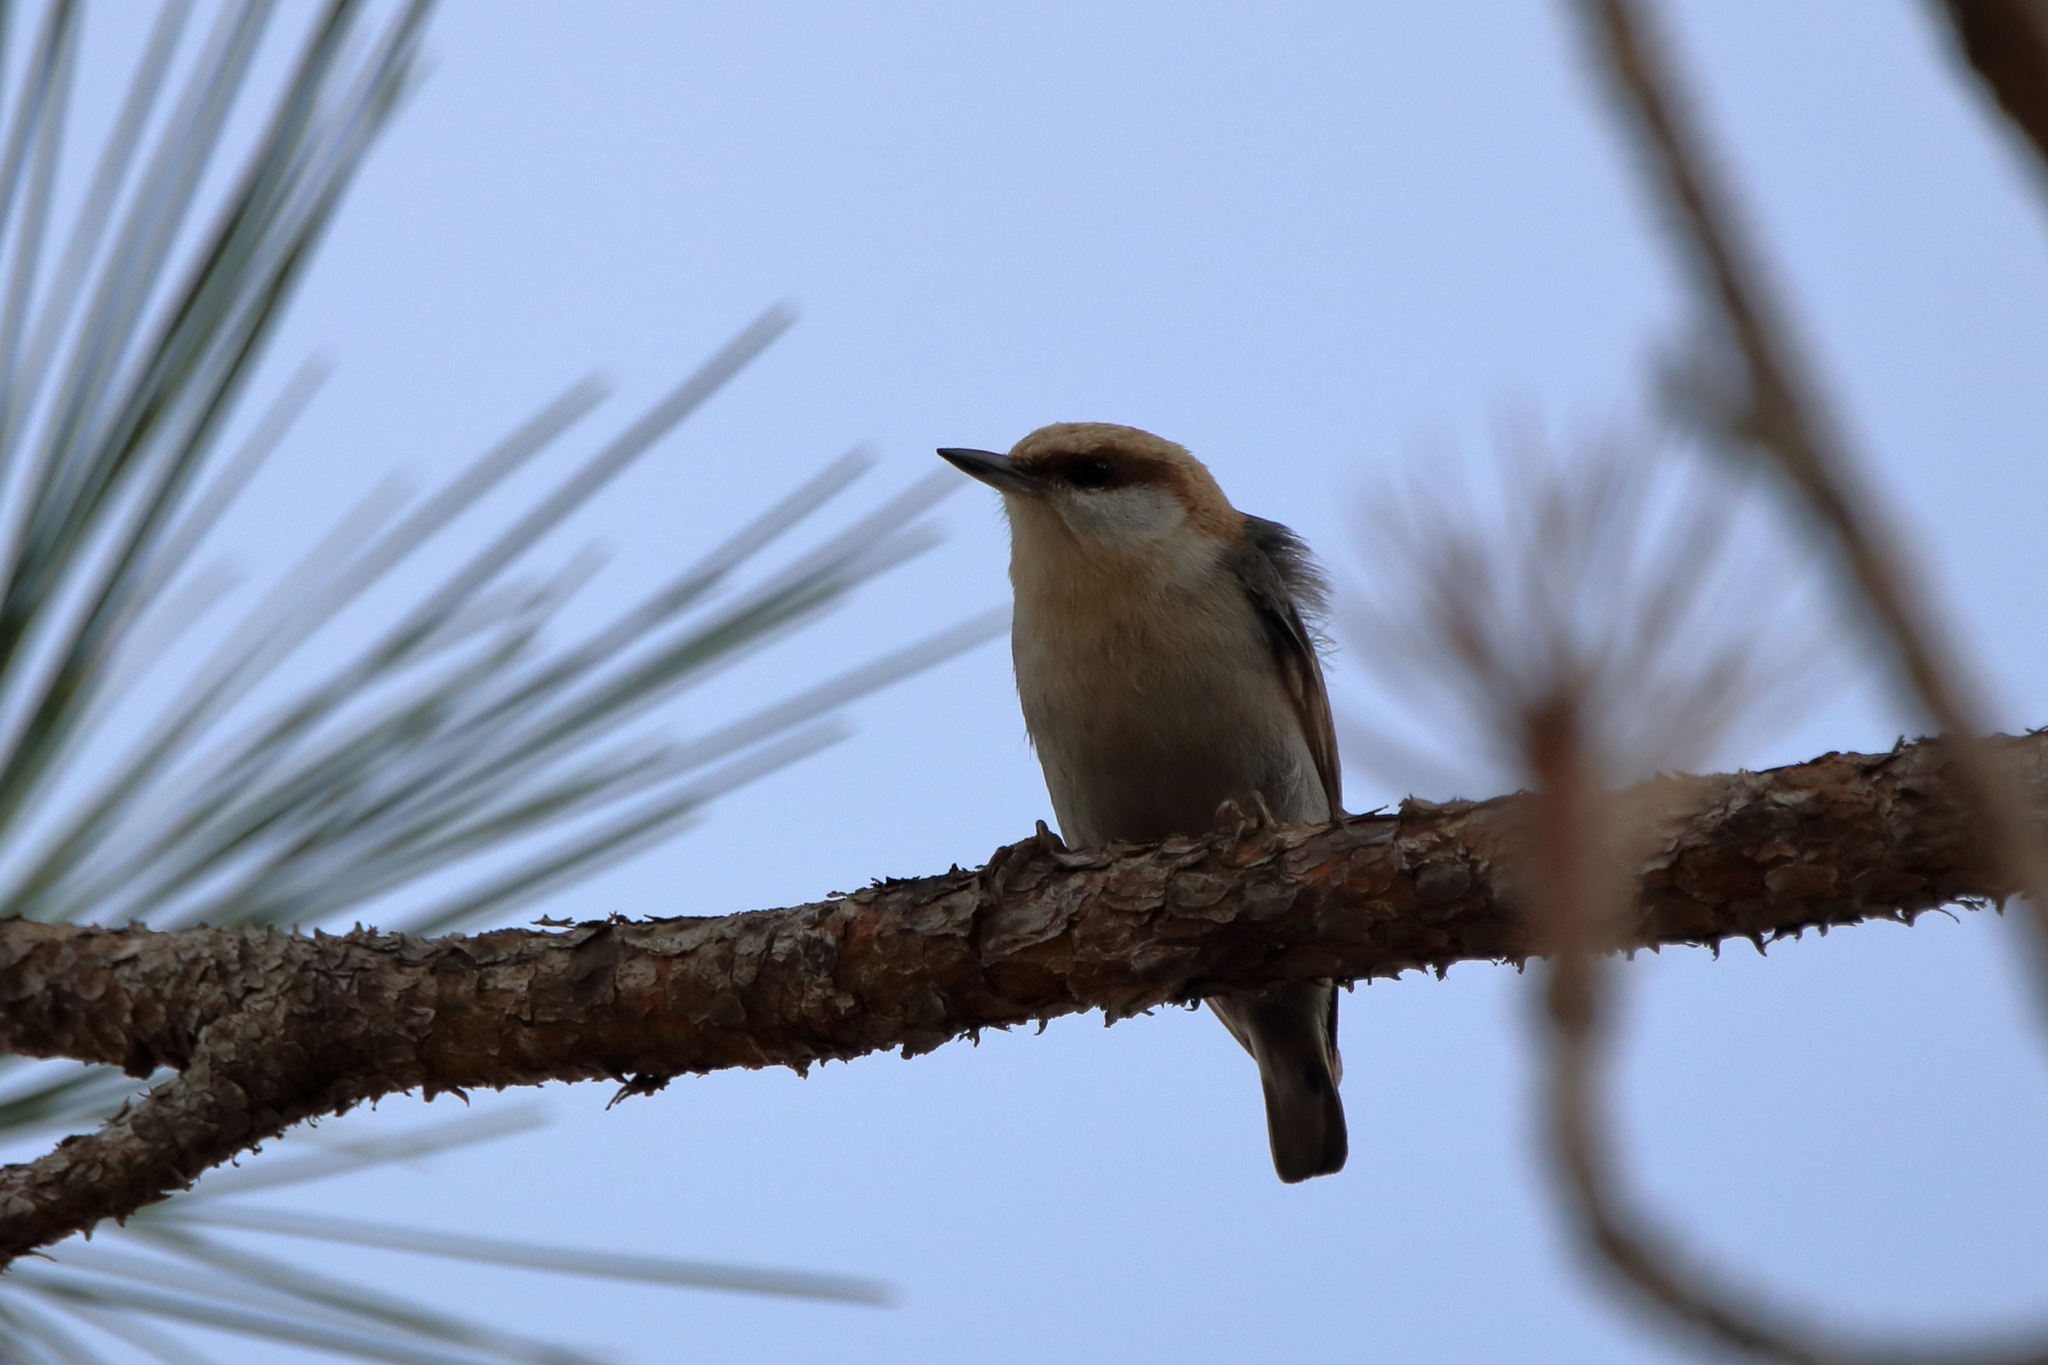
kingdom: Animalia
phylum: Chordata
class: Aves
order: Passeriformes
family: Sittidae
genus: Sitta
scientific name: Sitta pusilla
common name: Brown-headed nuthatch
